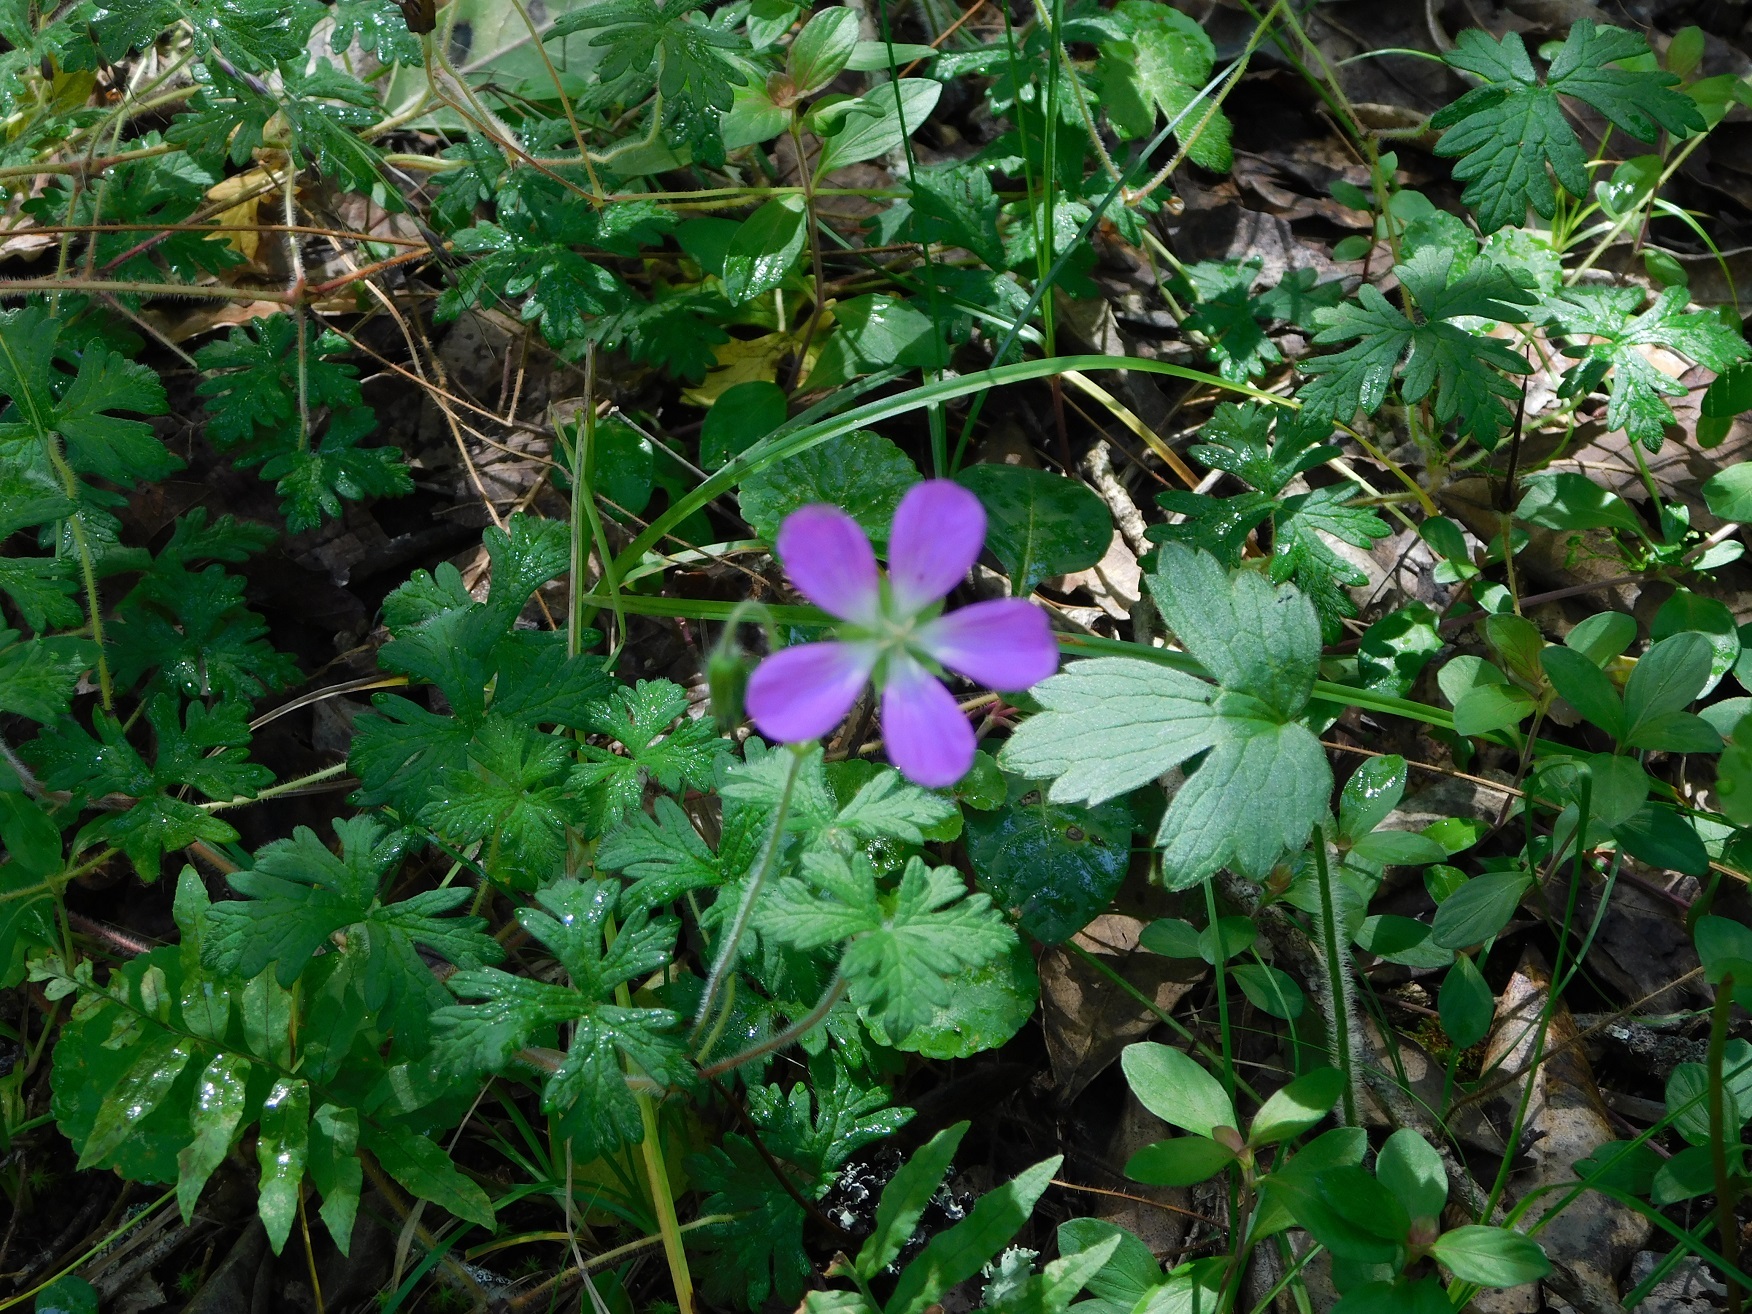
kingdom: Plantae
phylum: Tracheophyta
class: Magnoliopsida
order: Geraniales
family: Geraniaceae
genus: Geranium
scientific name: Geranium goldmanii
